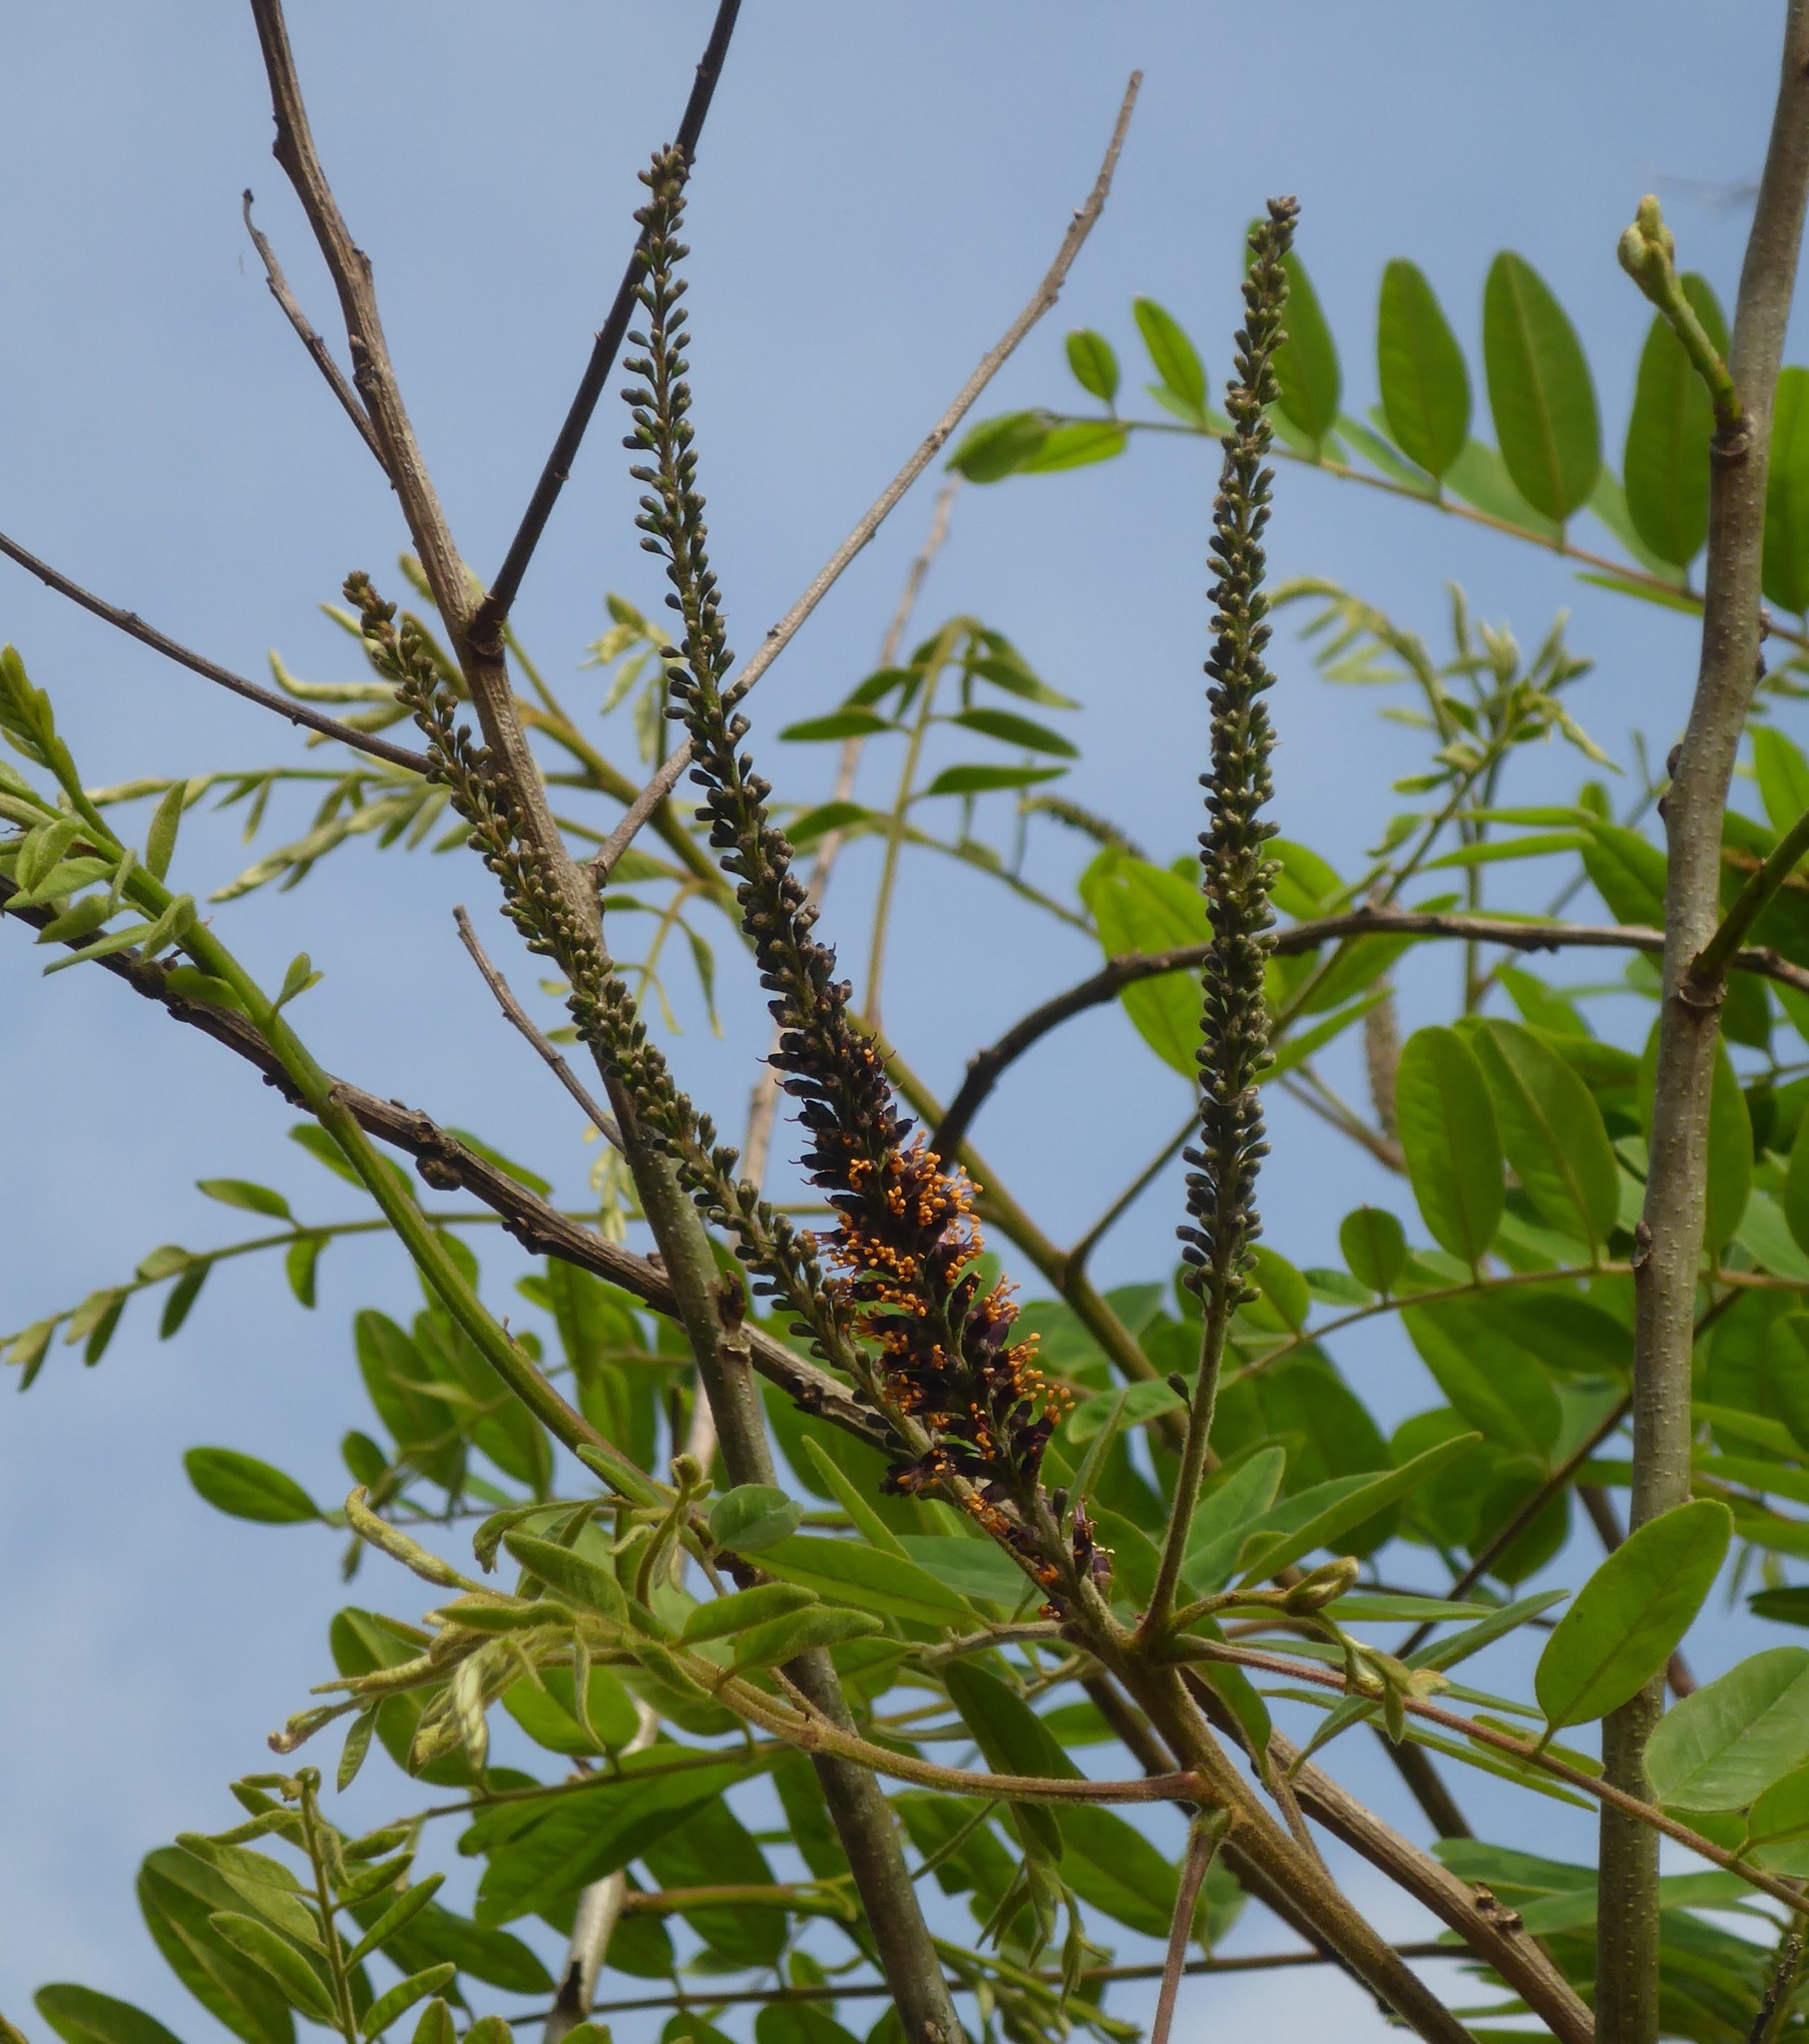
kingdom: Plantae
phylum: Tracheophyta
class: Magnoliopsida
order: Fabales
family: Fabaceae
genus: Amorpha
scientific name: Amorpha fruticosa
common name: False indigo
